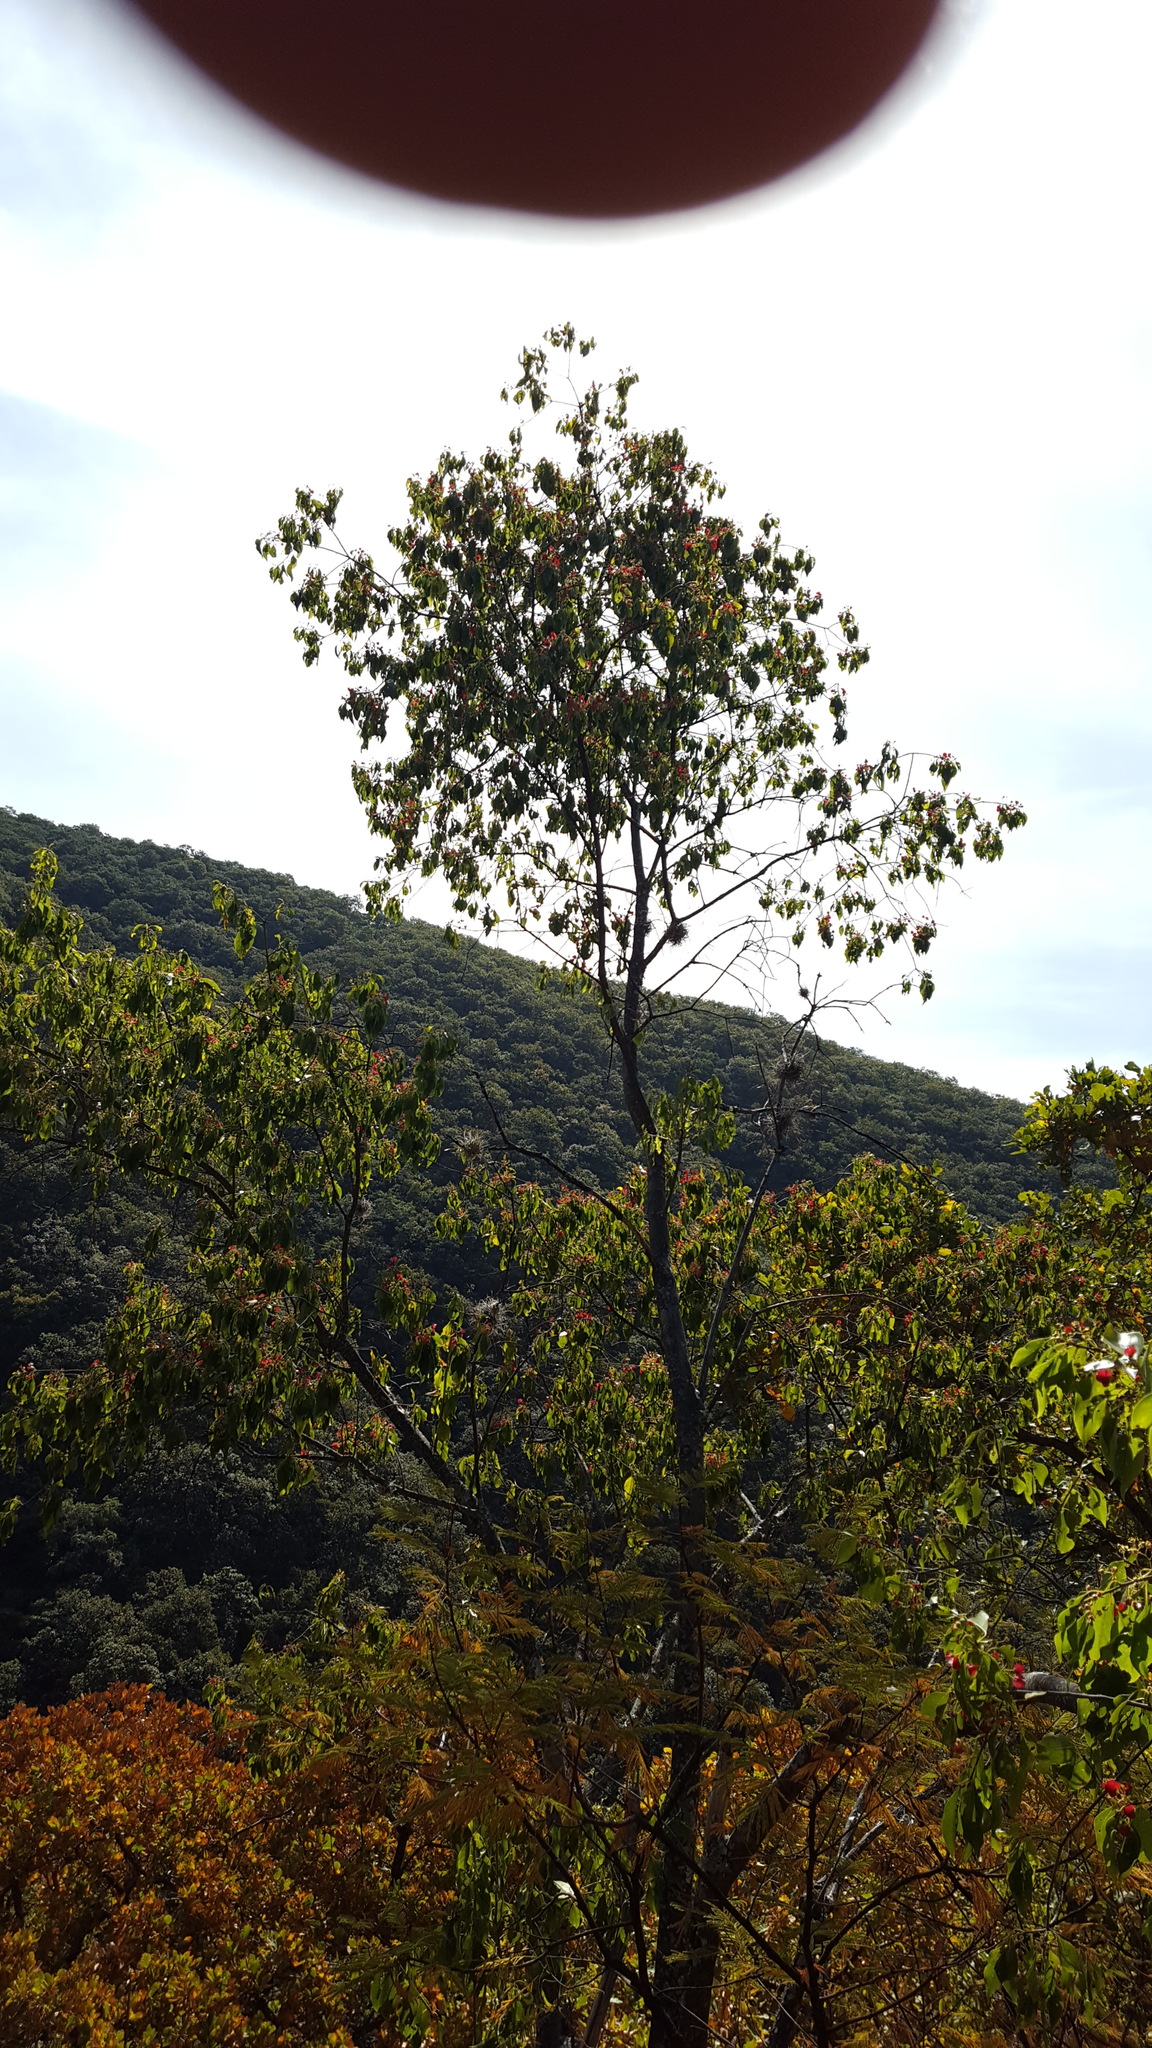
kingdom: Plantae
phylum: Tracheophyta
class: Magnoliopsida
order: Celastrales
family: Celastraceae
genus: Wimmeria
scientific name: Wimmeria persicifolia
